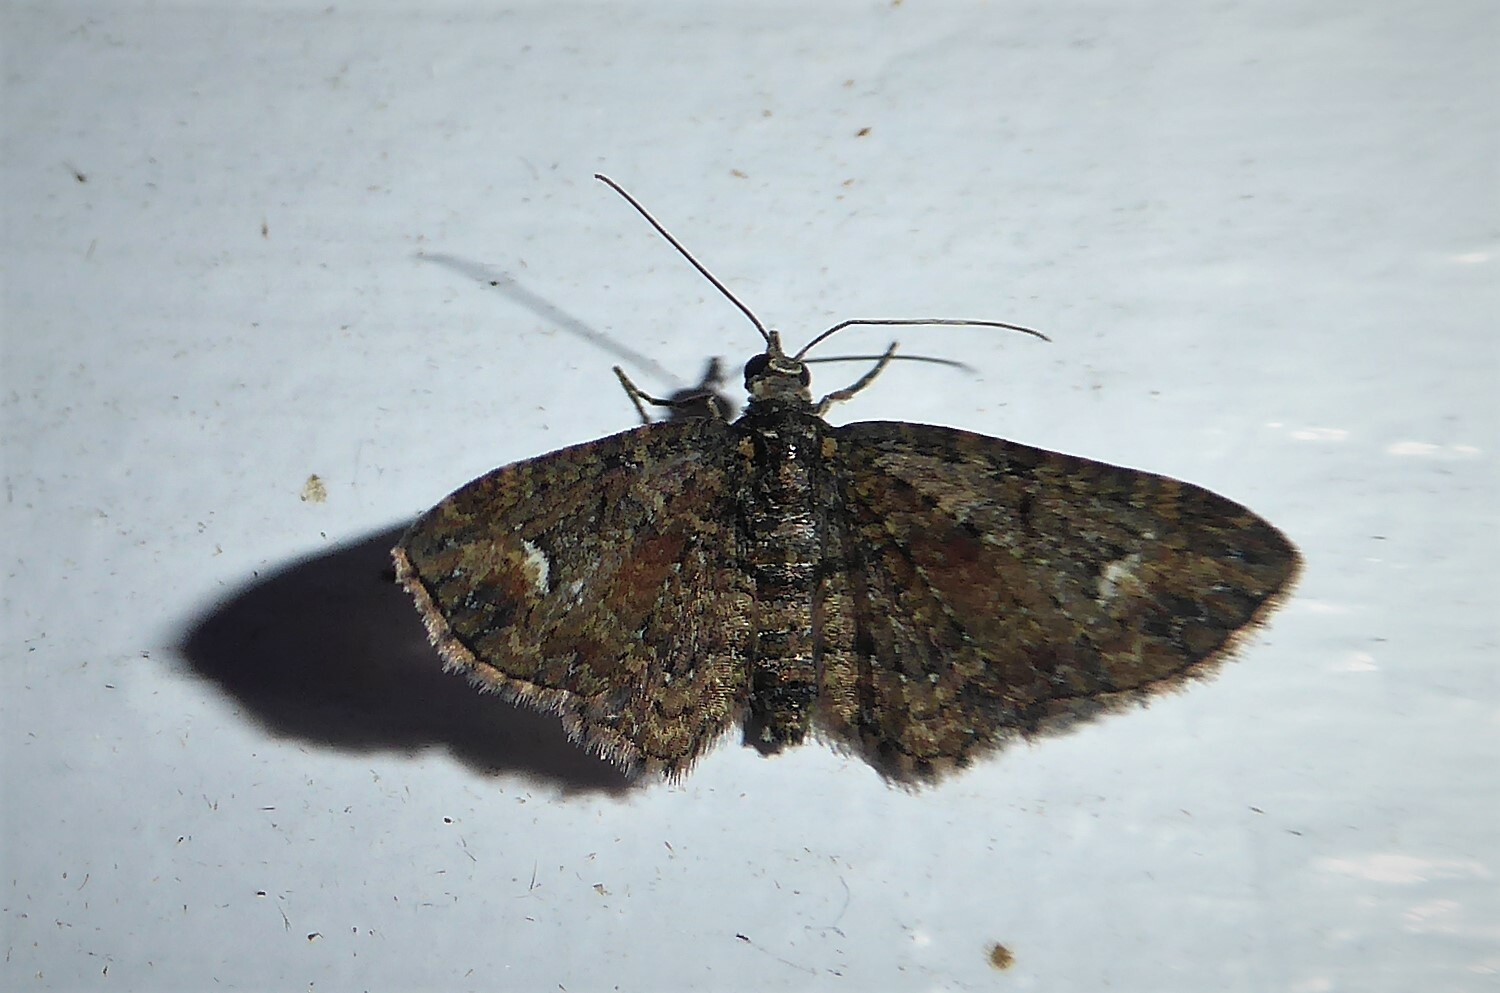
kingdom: Animalia
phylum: Arthropoda
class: Insecta
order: Lepidoptera
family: Geometridae
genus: Pasiphilodes
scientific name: Pasiphilodes testulata
